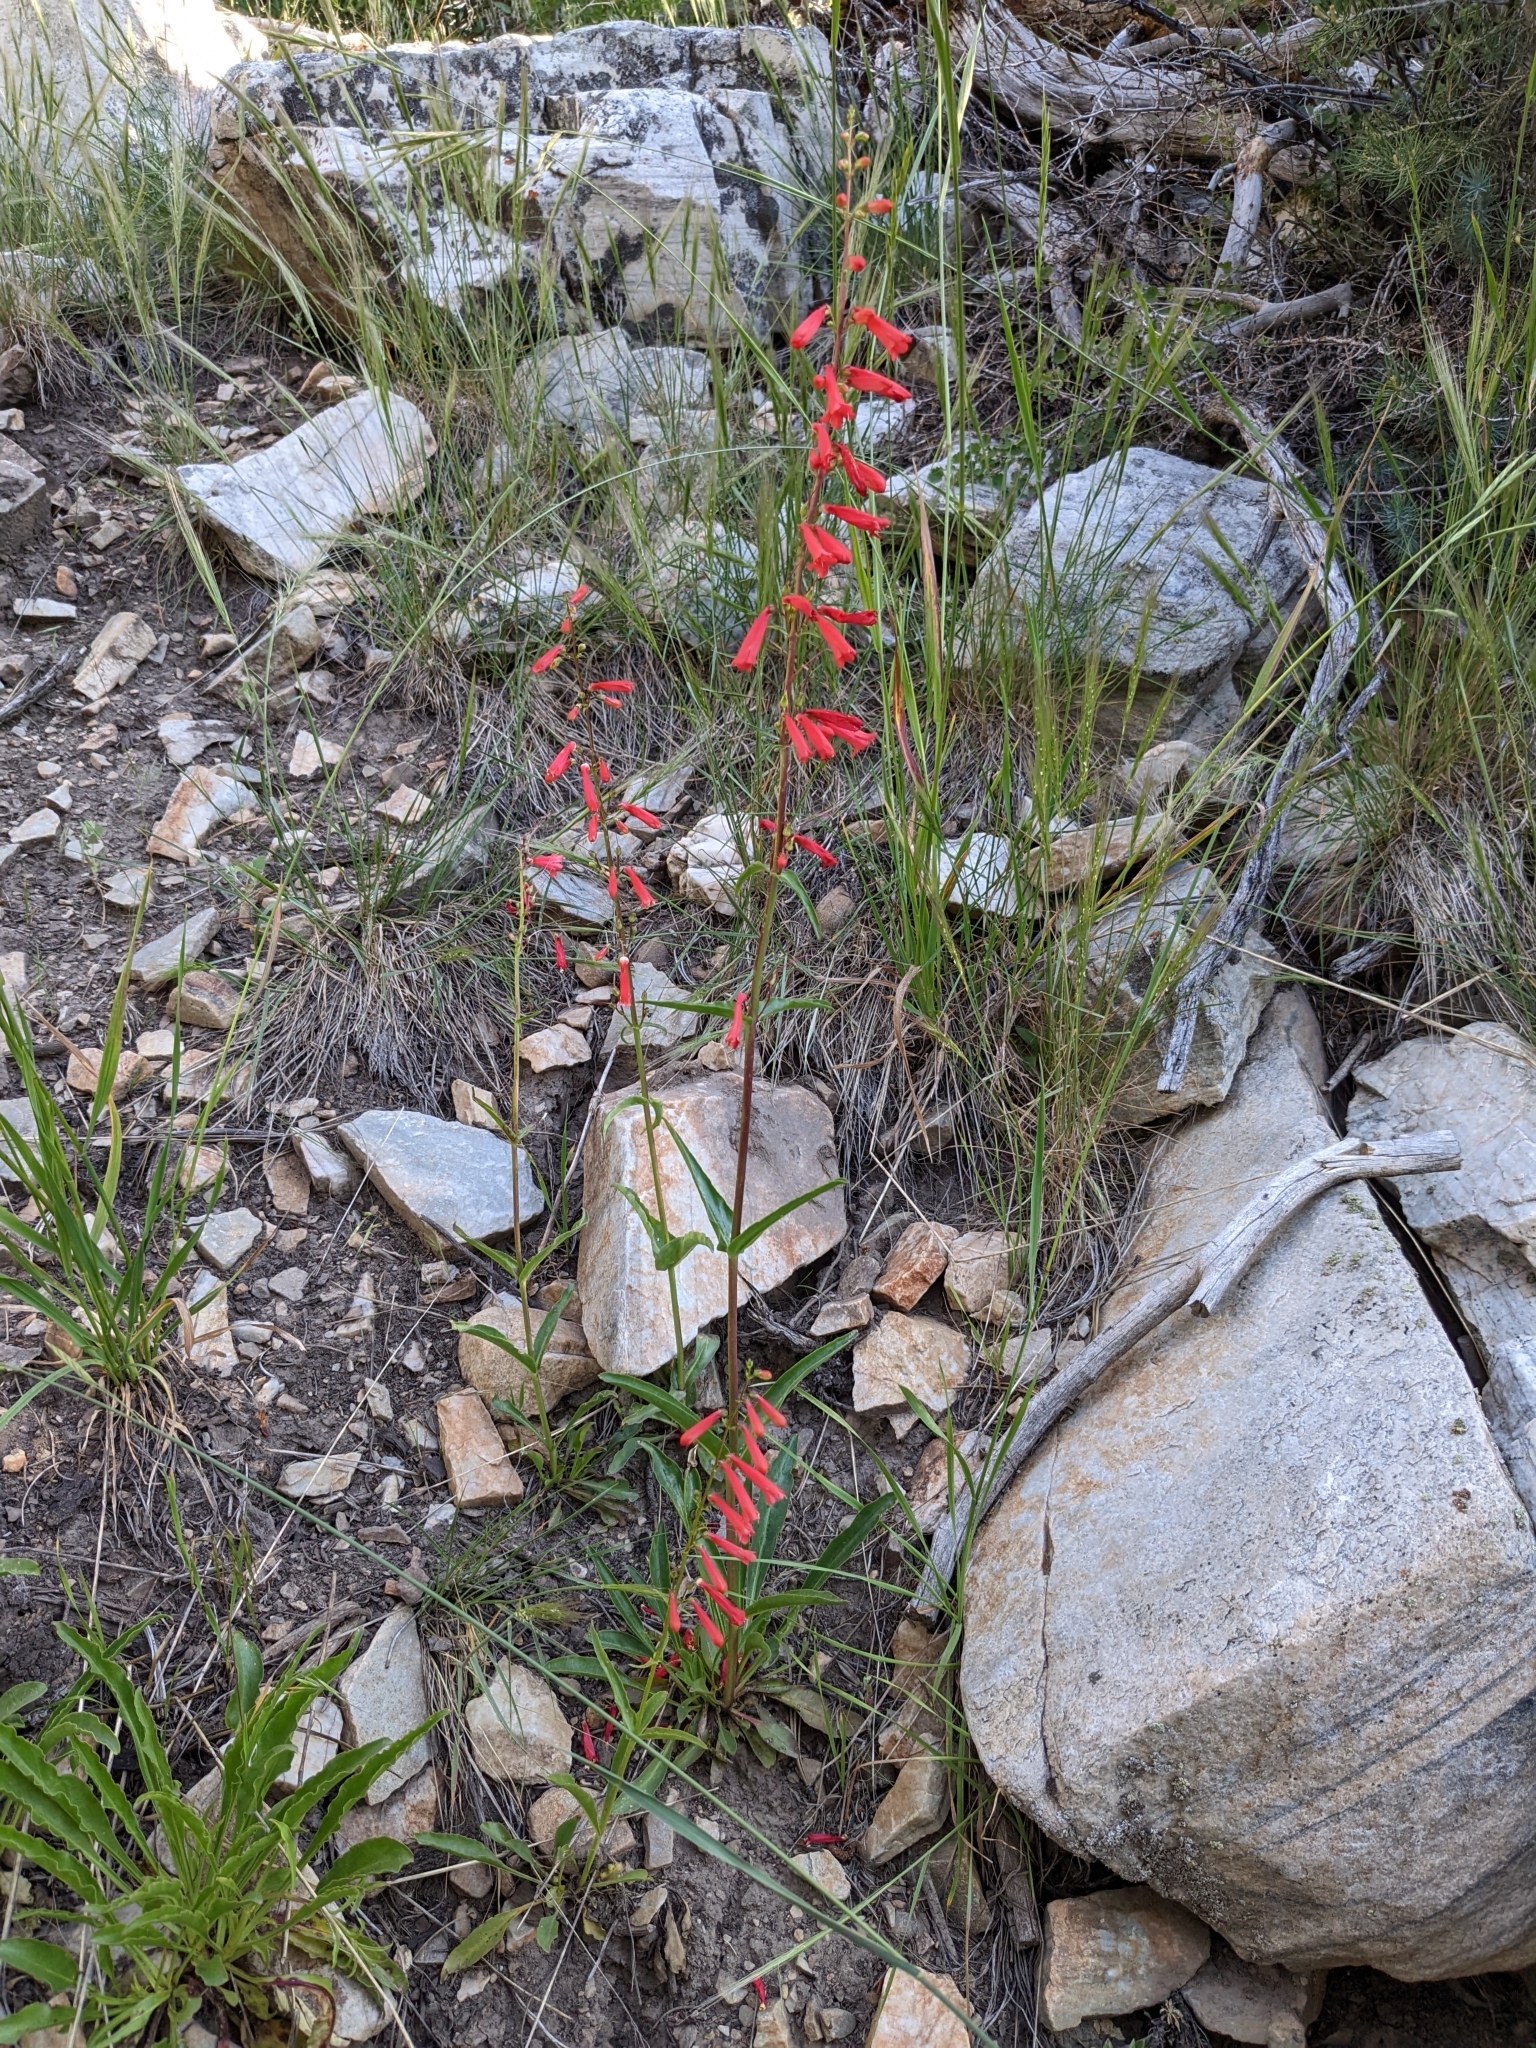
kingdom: Plantae
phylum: Tracheophyta
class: Magnoliopsida
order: Lamiales
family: Plantaginaceae
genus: Penstemon
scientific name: Penstemon eatonii
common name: Eaton's penstemon
